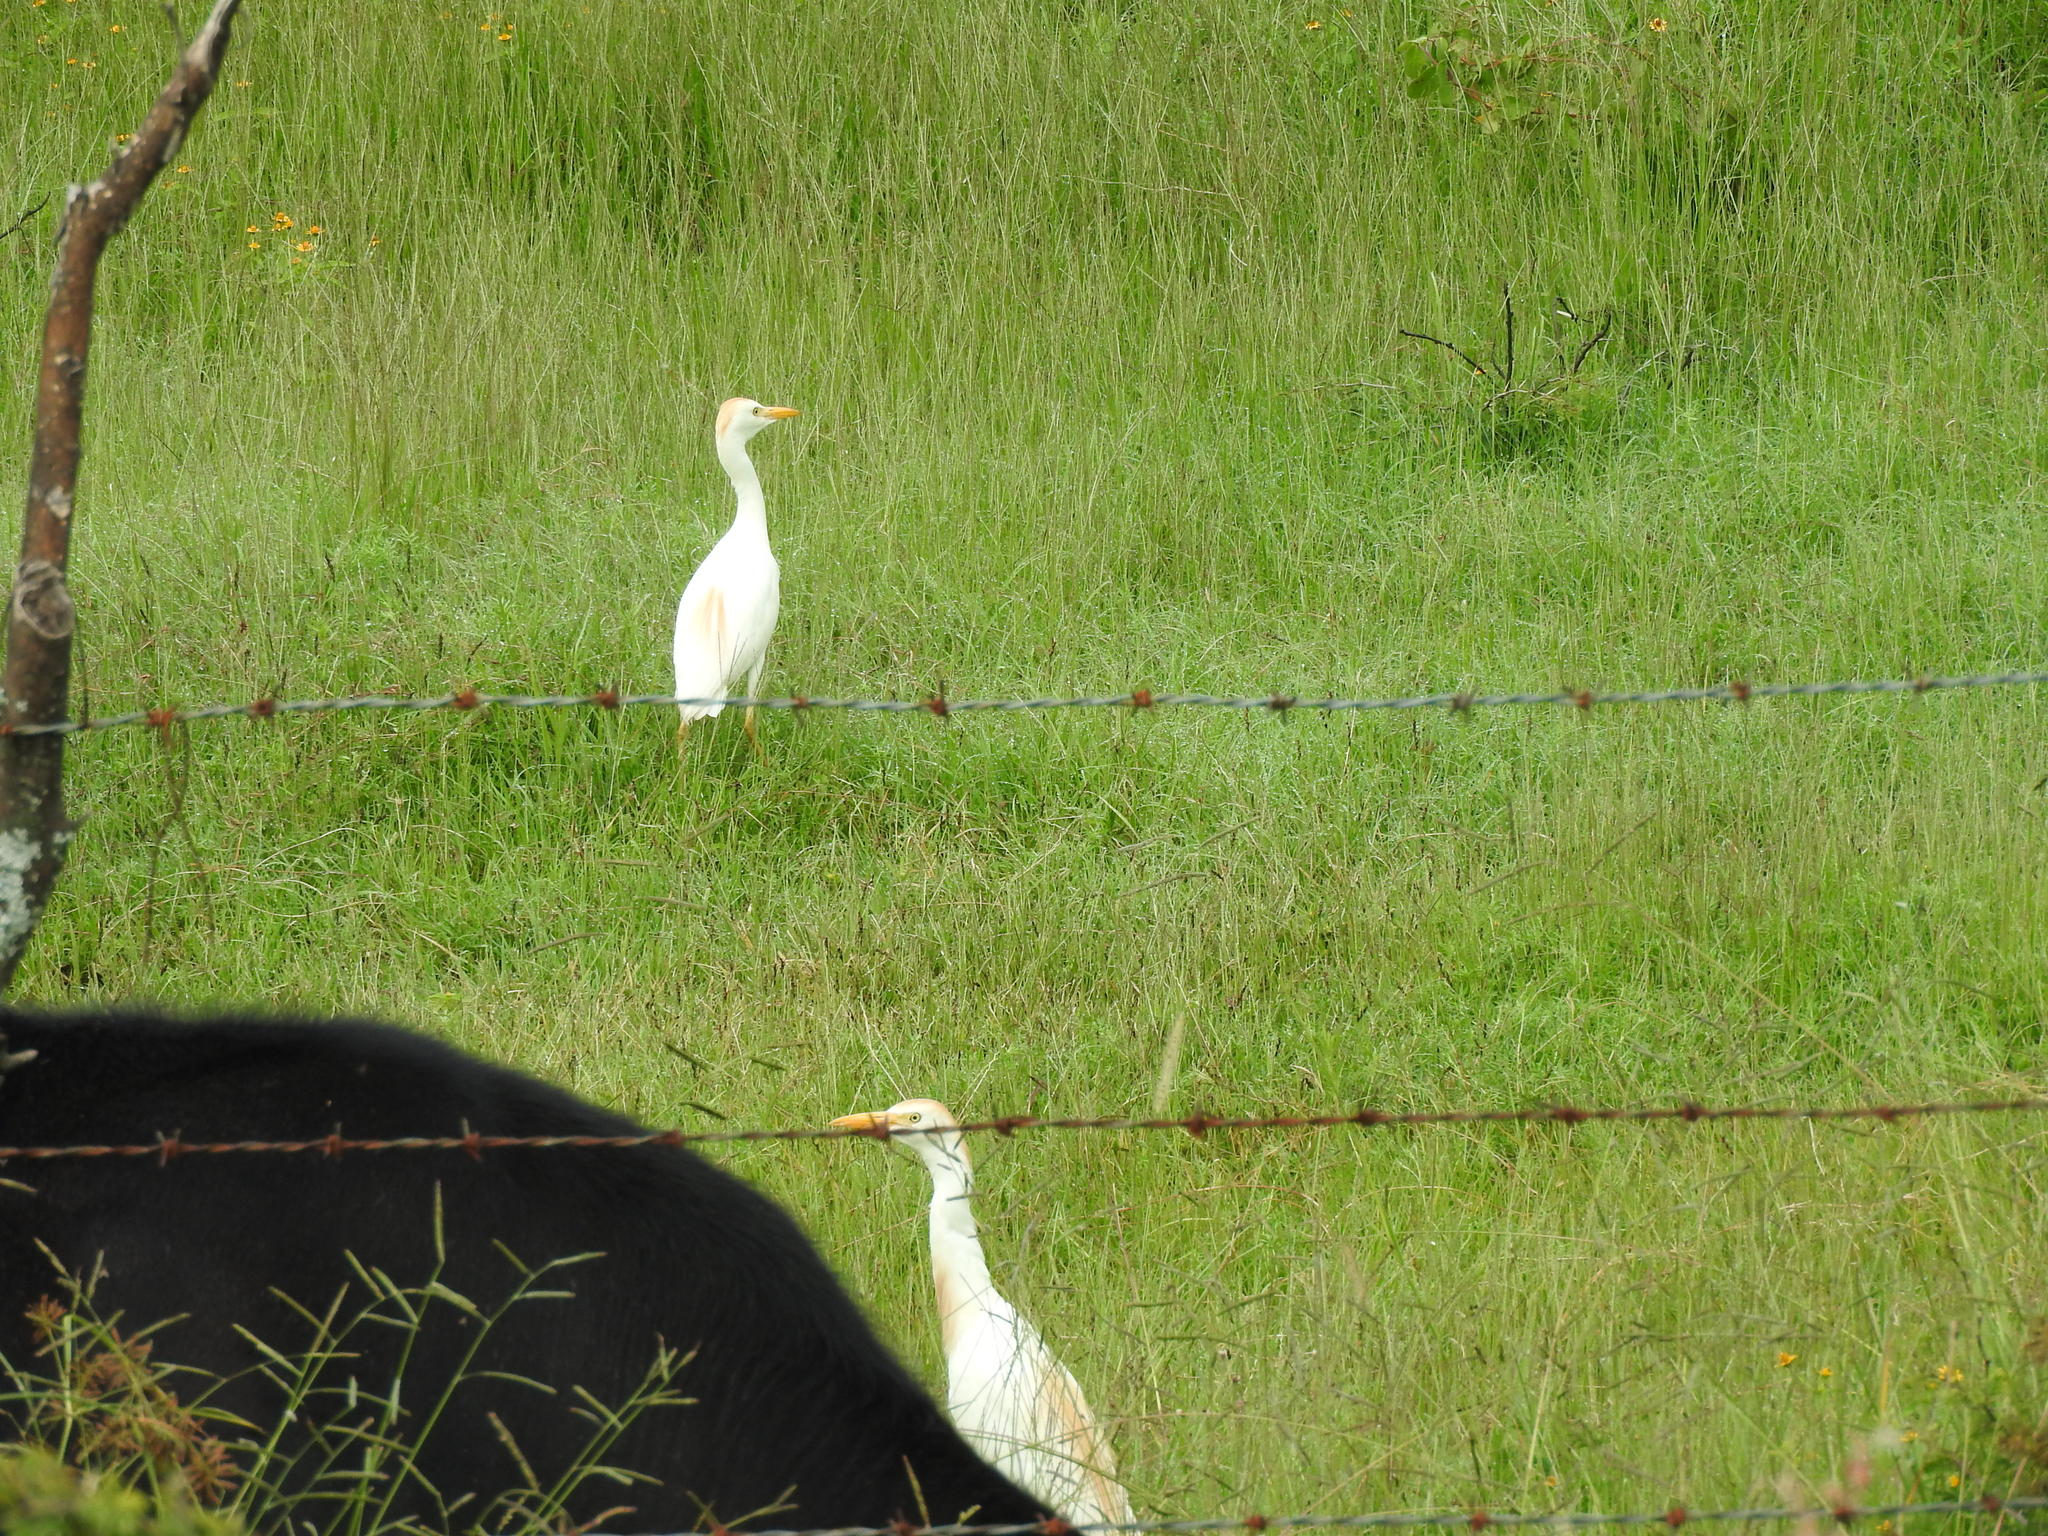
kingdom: Animalia
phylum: Chordata
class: Aves
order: Pelecaniformes
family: Ardeidae
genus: Bubulcus
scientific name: Bubulcus ibis
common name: Cattle egret
